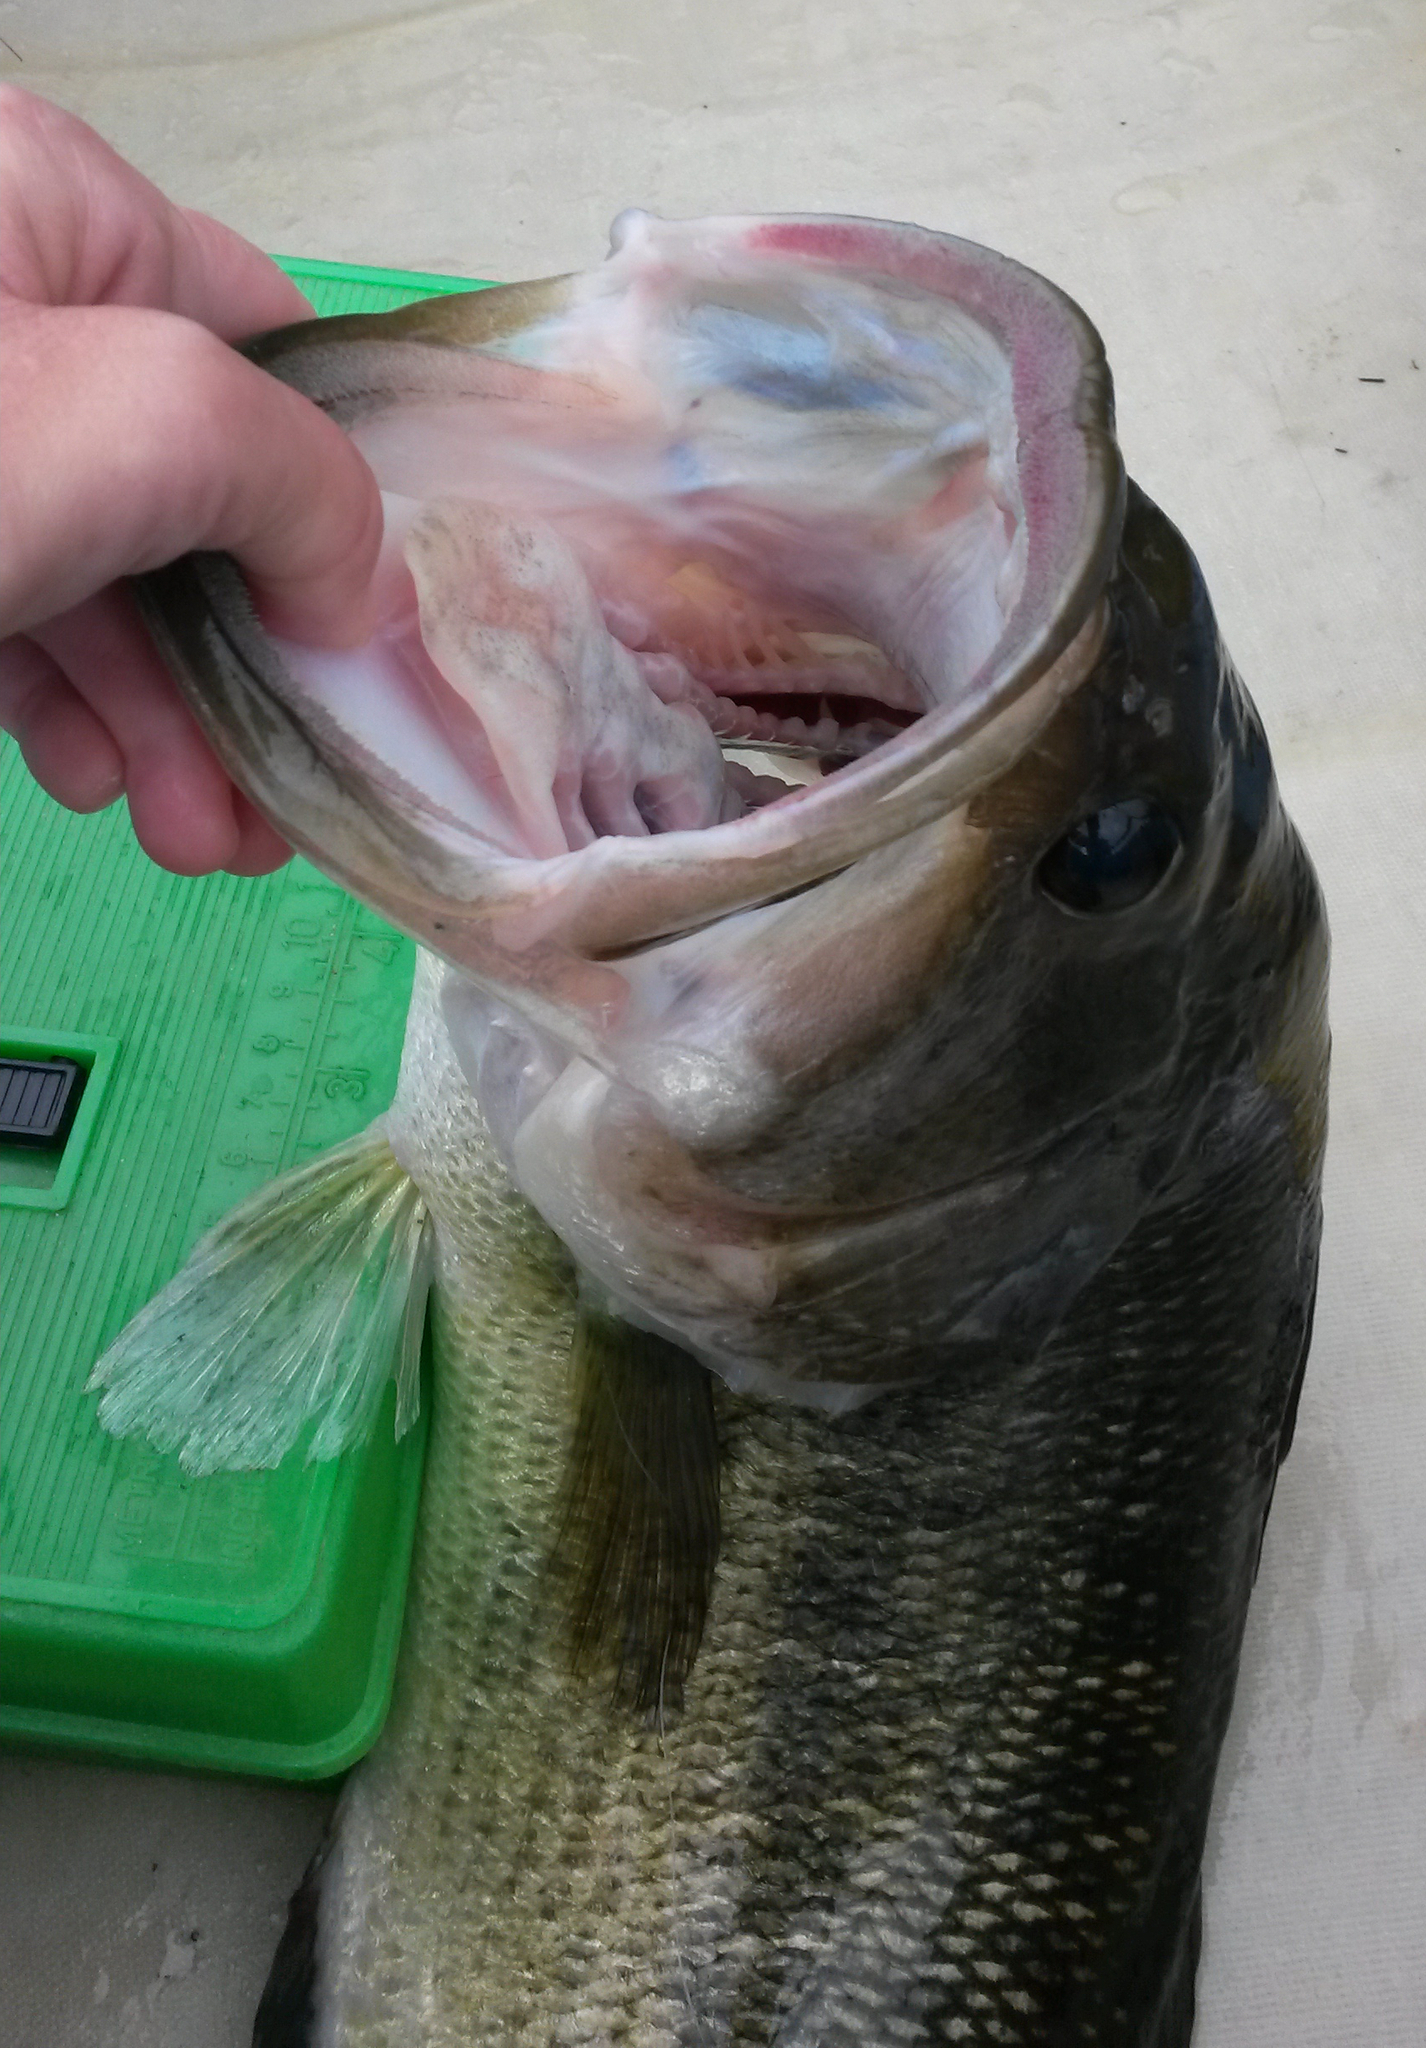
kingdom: Animalia
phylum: Chordata
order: Perciformes
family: Centrarchidae
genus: Micropterus
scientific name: Micropterus
